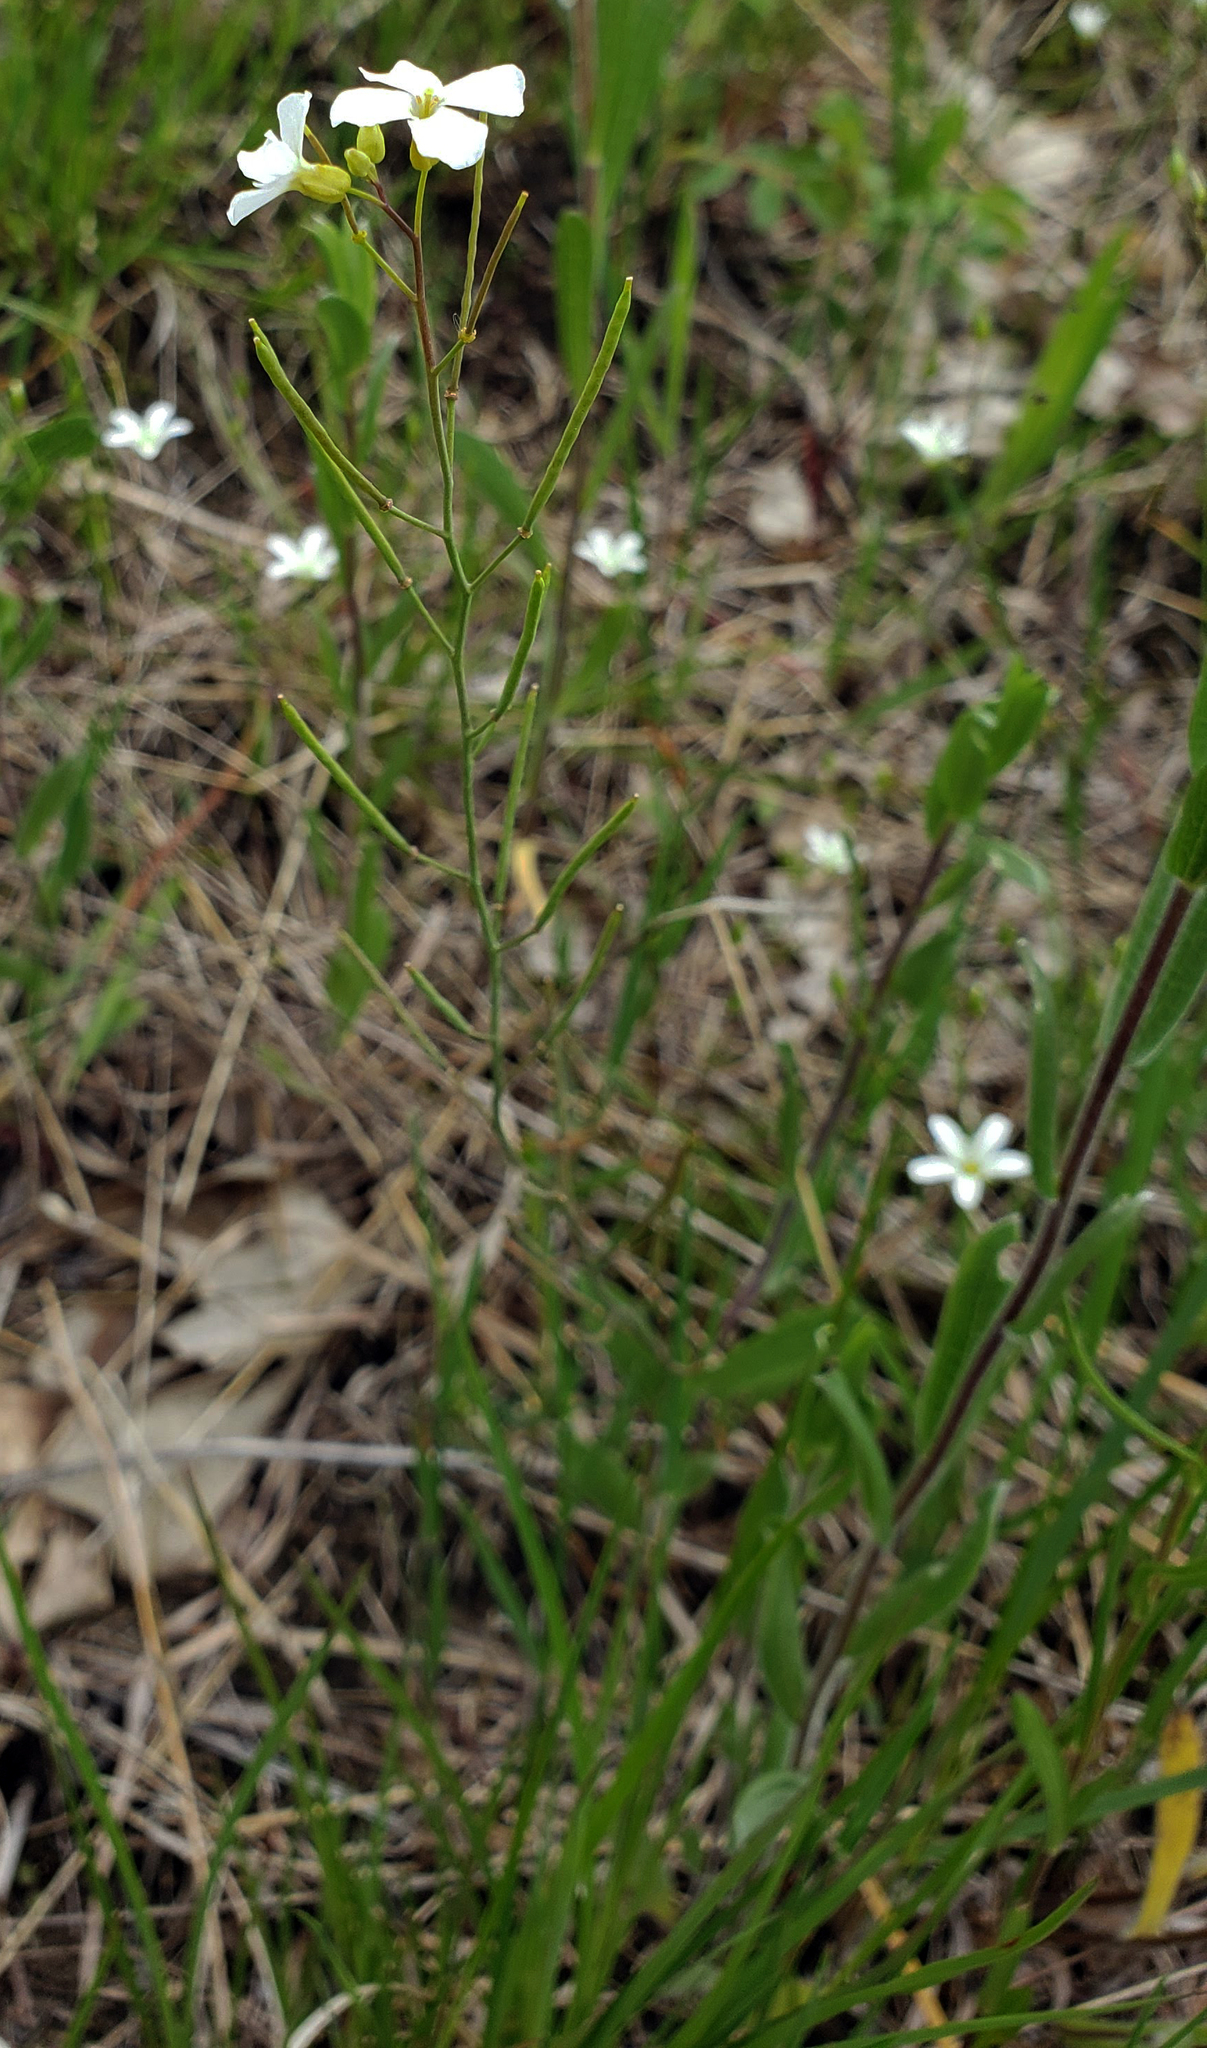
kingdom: Plantae
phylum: Tracheophyta
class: Magnoliopsida
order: Brassicales
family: Brassicaceae
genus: Arabidopsis
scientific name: Arabidopsis lyrata
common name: Lyrate rockcress
